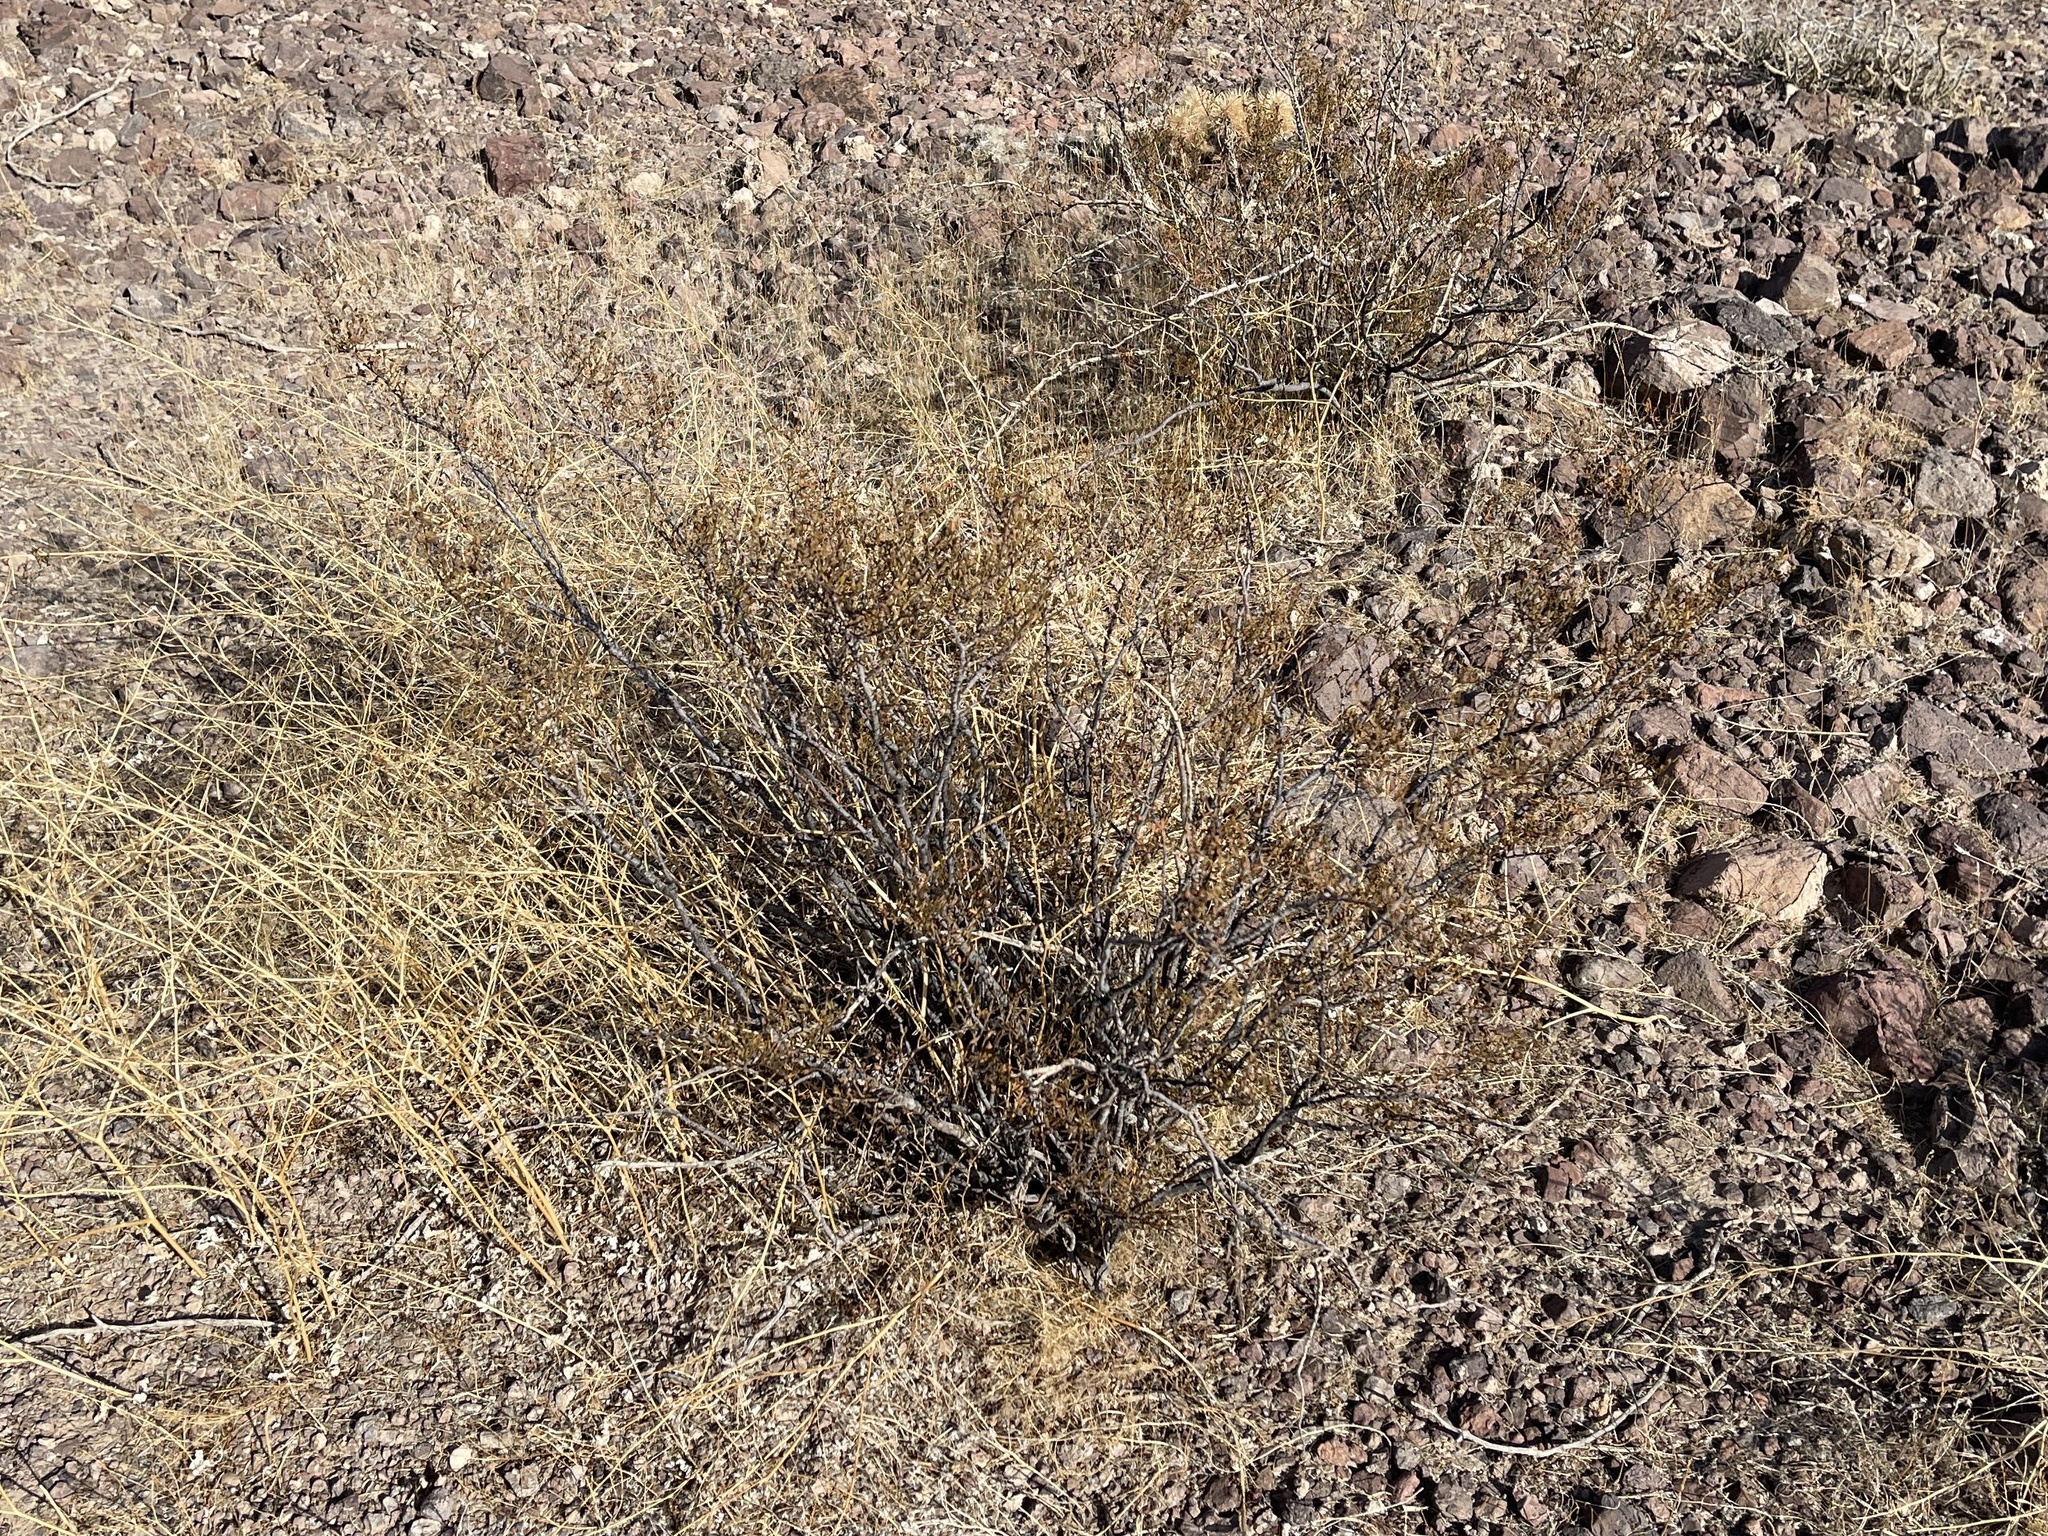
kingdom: Plantae
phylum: Tracheophyta
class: Magnoliopsida
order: Zygophyllales
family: Zygophyllaceae
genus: Larrea
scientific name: Larrea tridentata
